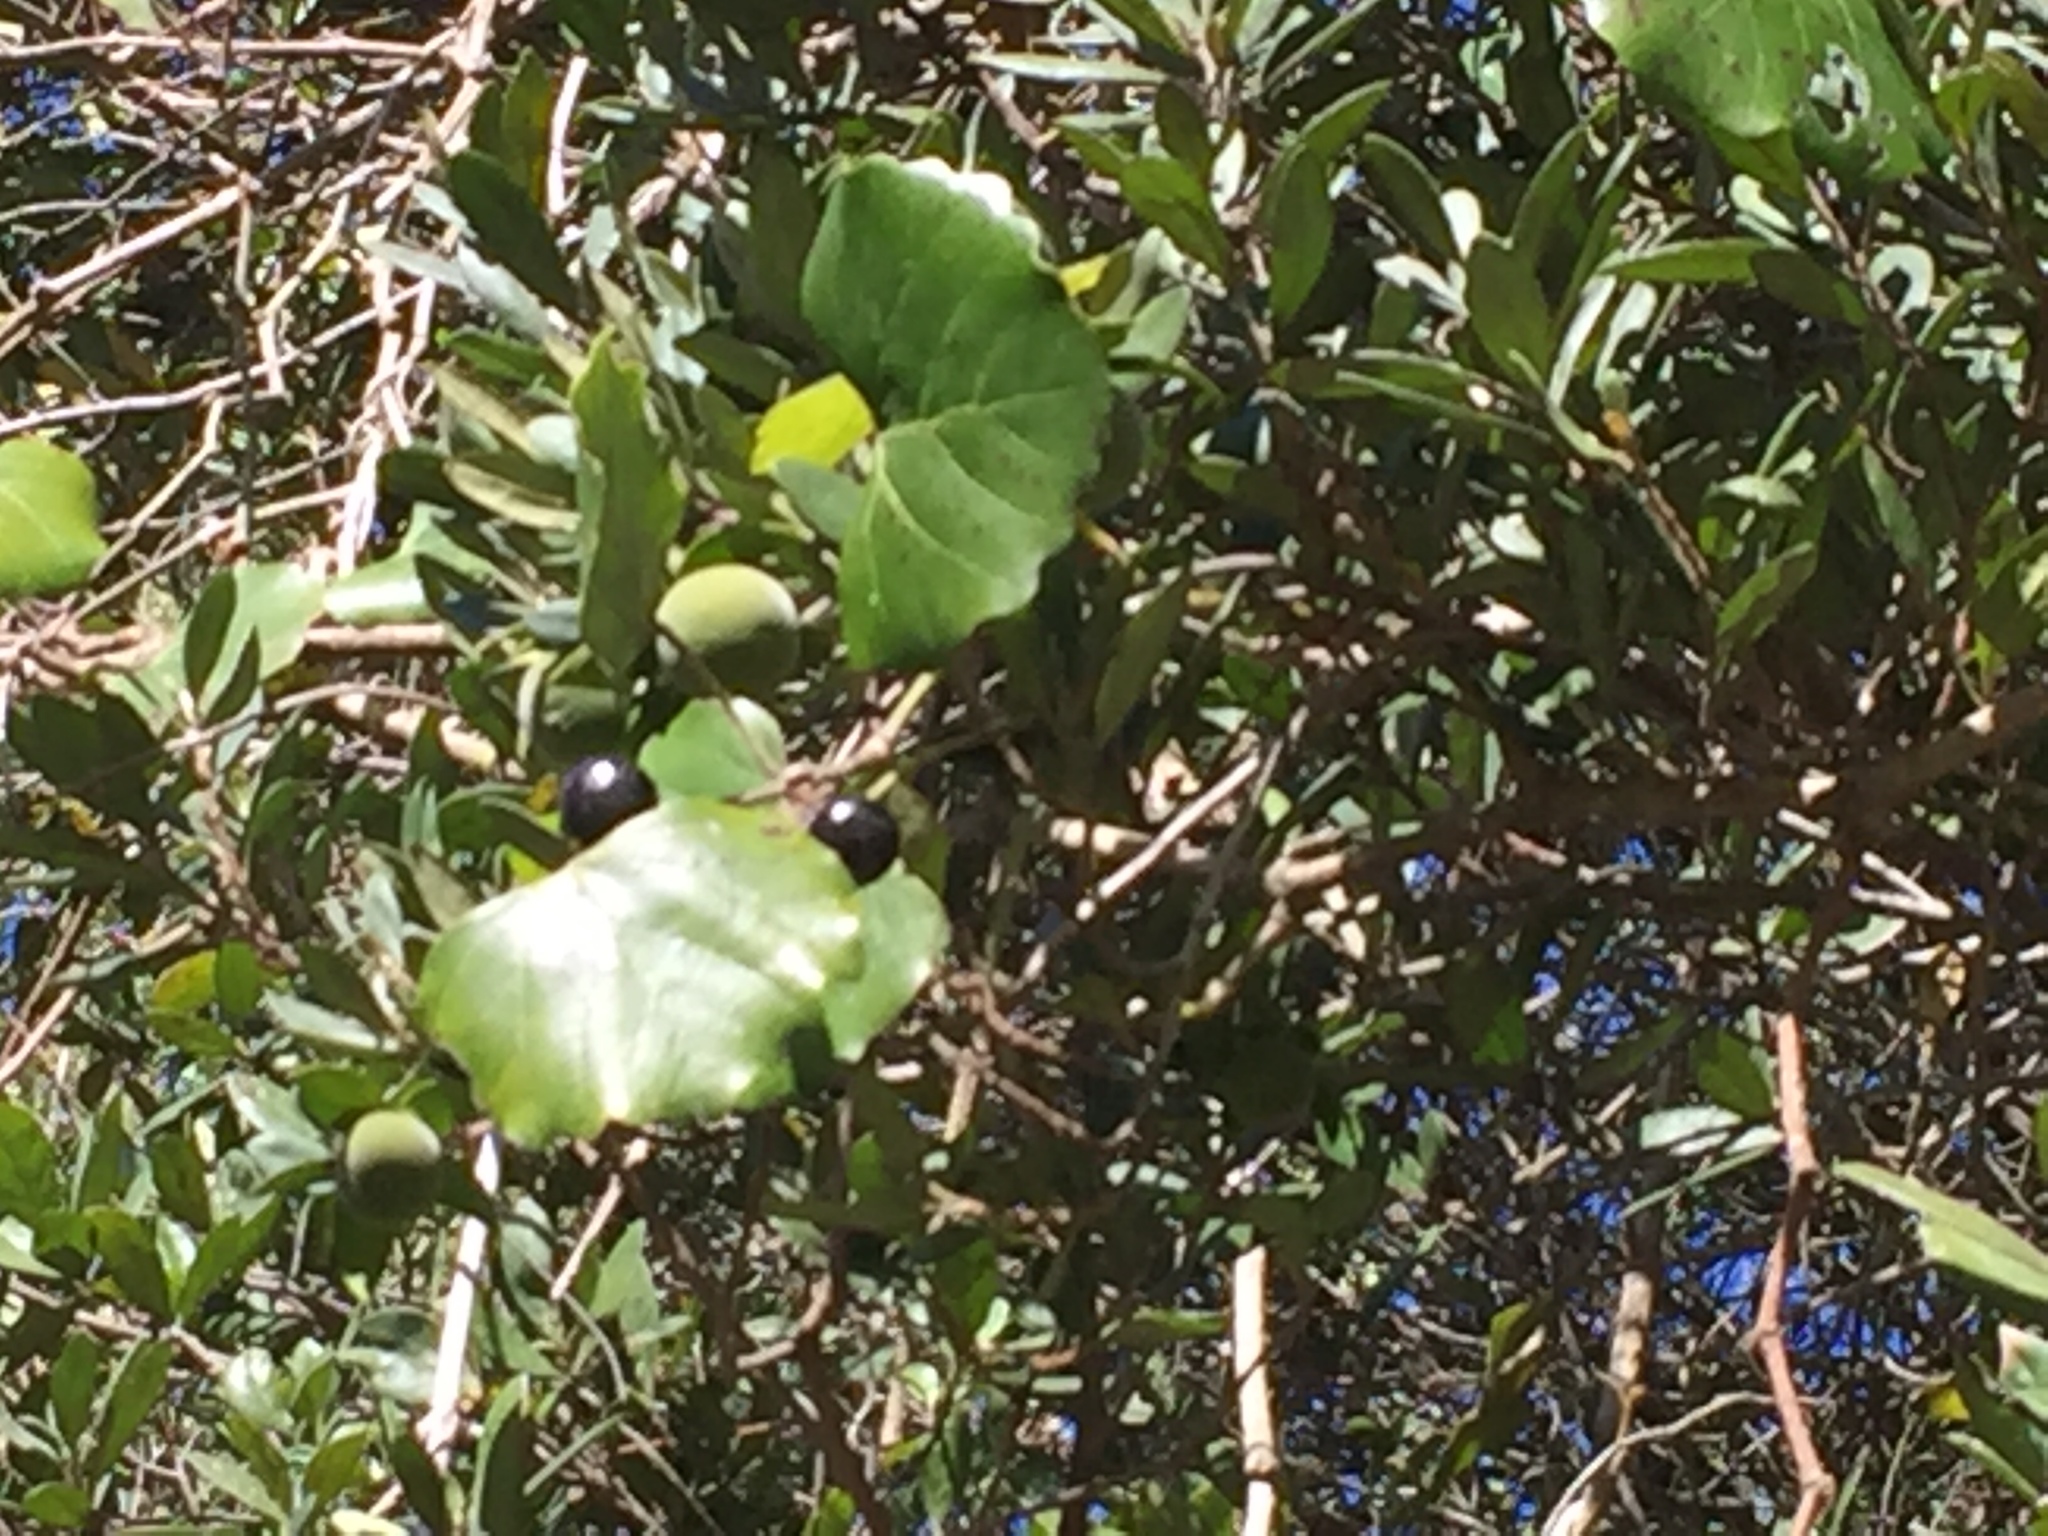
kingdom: Plantae
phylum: Tracheophyta
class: Magnoliopsida
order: Vitales
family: Vitaceae
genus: Rhoicissus
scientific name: Rhoicissus tomentosa
